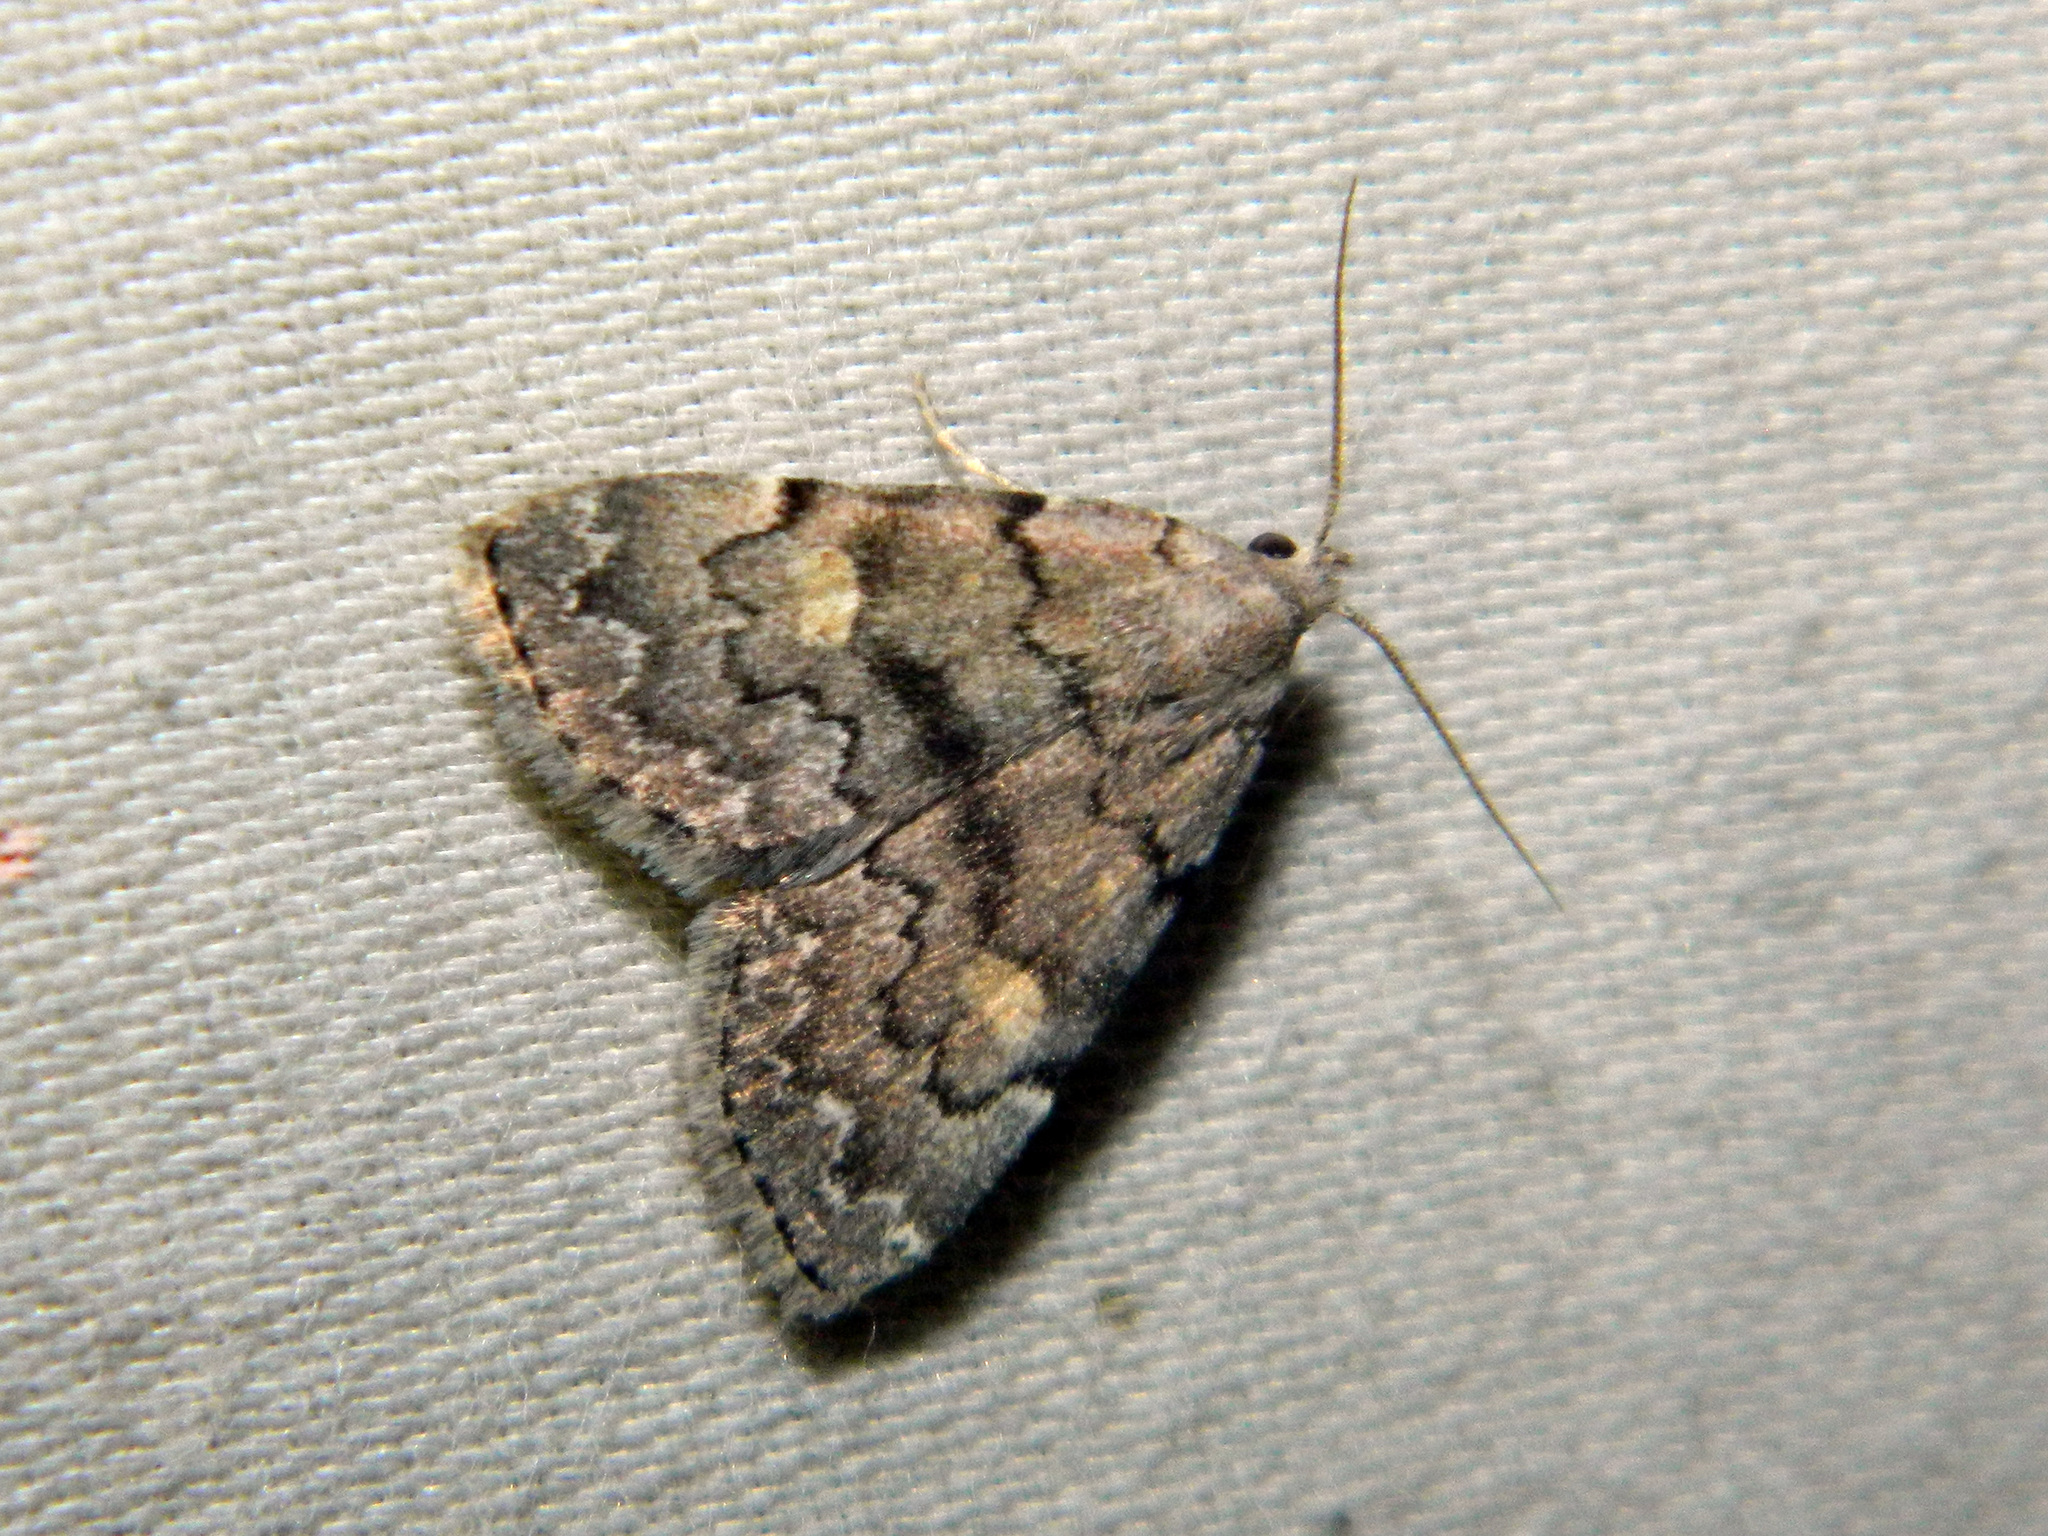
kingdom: Animalia
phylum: Arthropoda
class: Insecta
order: Lepidoptera
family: Erebidae
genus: Idia
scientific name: Idia aemula
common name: Common idia moth
